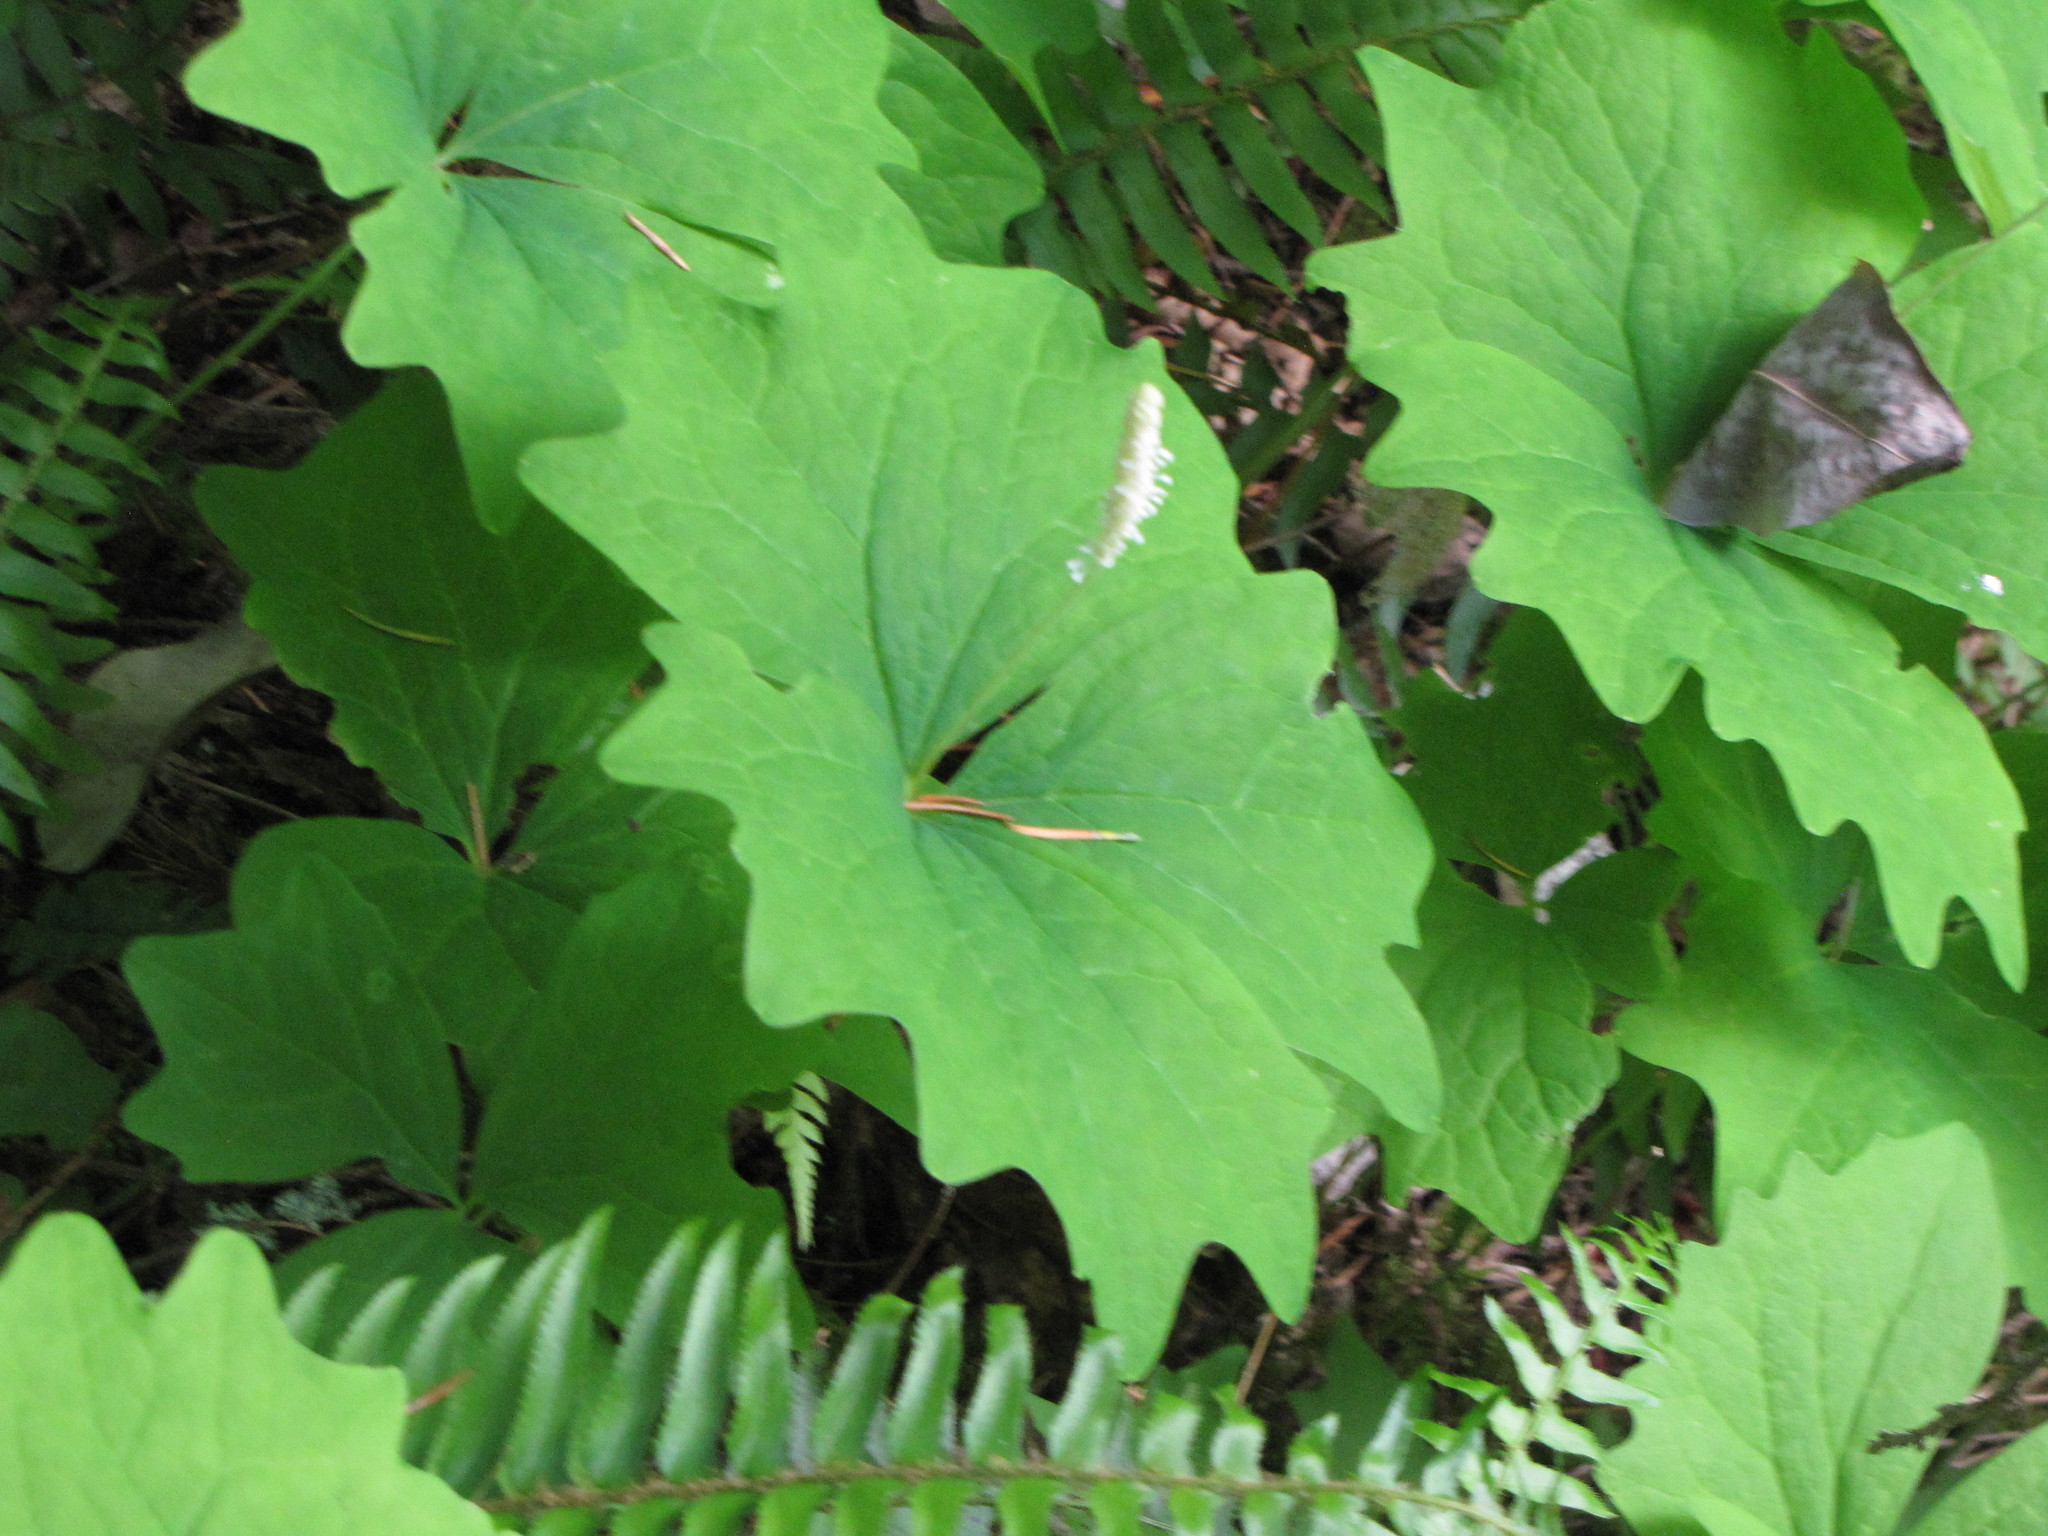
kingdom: Plantae
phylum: Tracheophyta
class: Magnoliopsida
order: Ranunculales
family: Berberidaceae
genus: Achlys
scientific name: Achlys triphylla
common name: Vanilla-leaf
